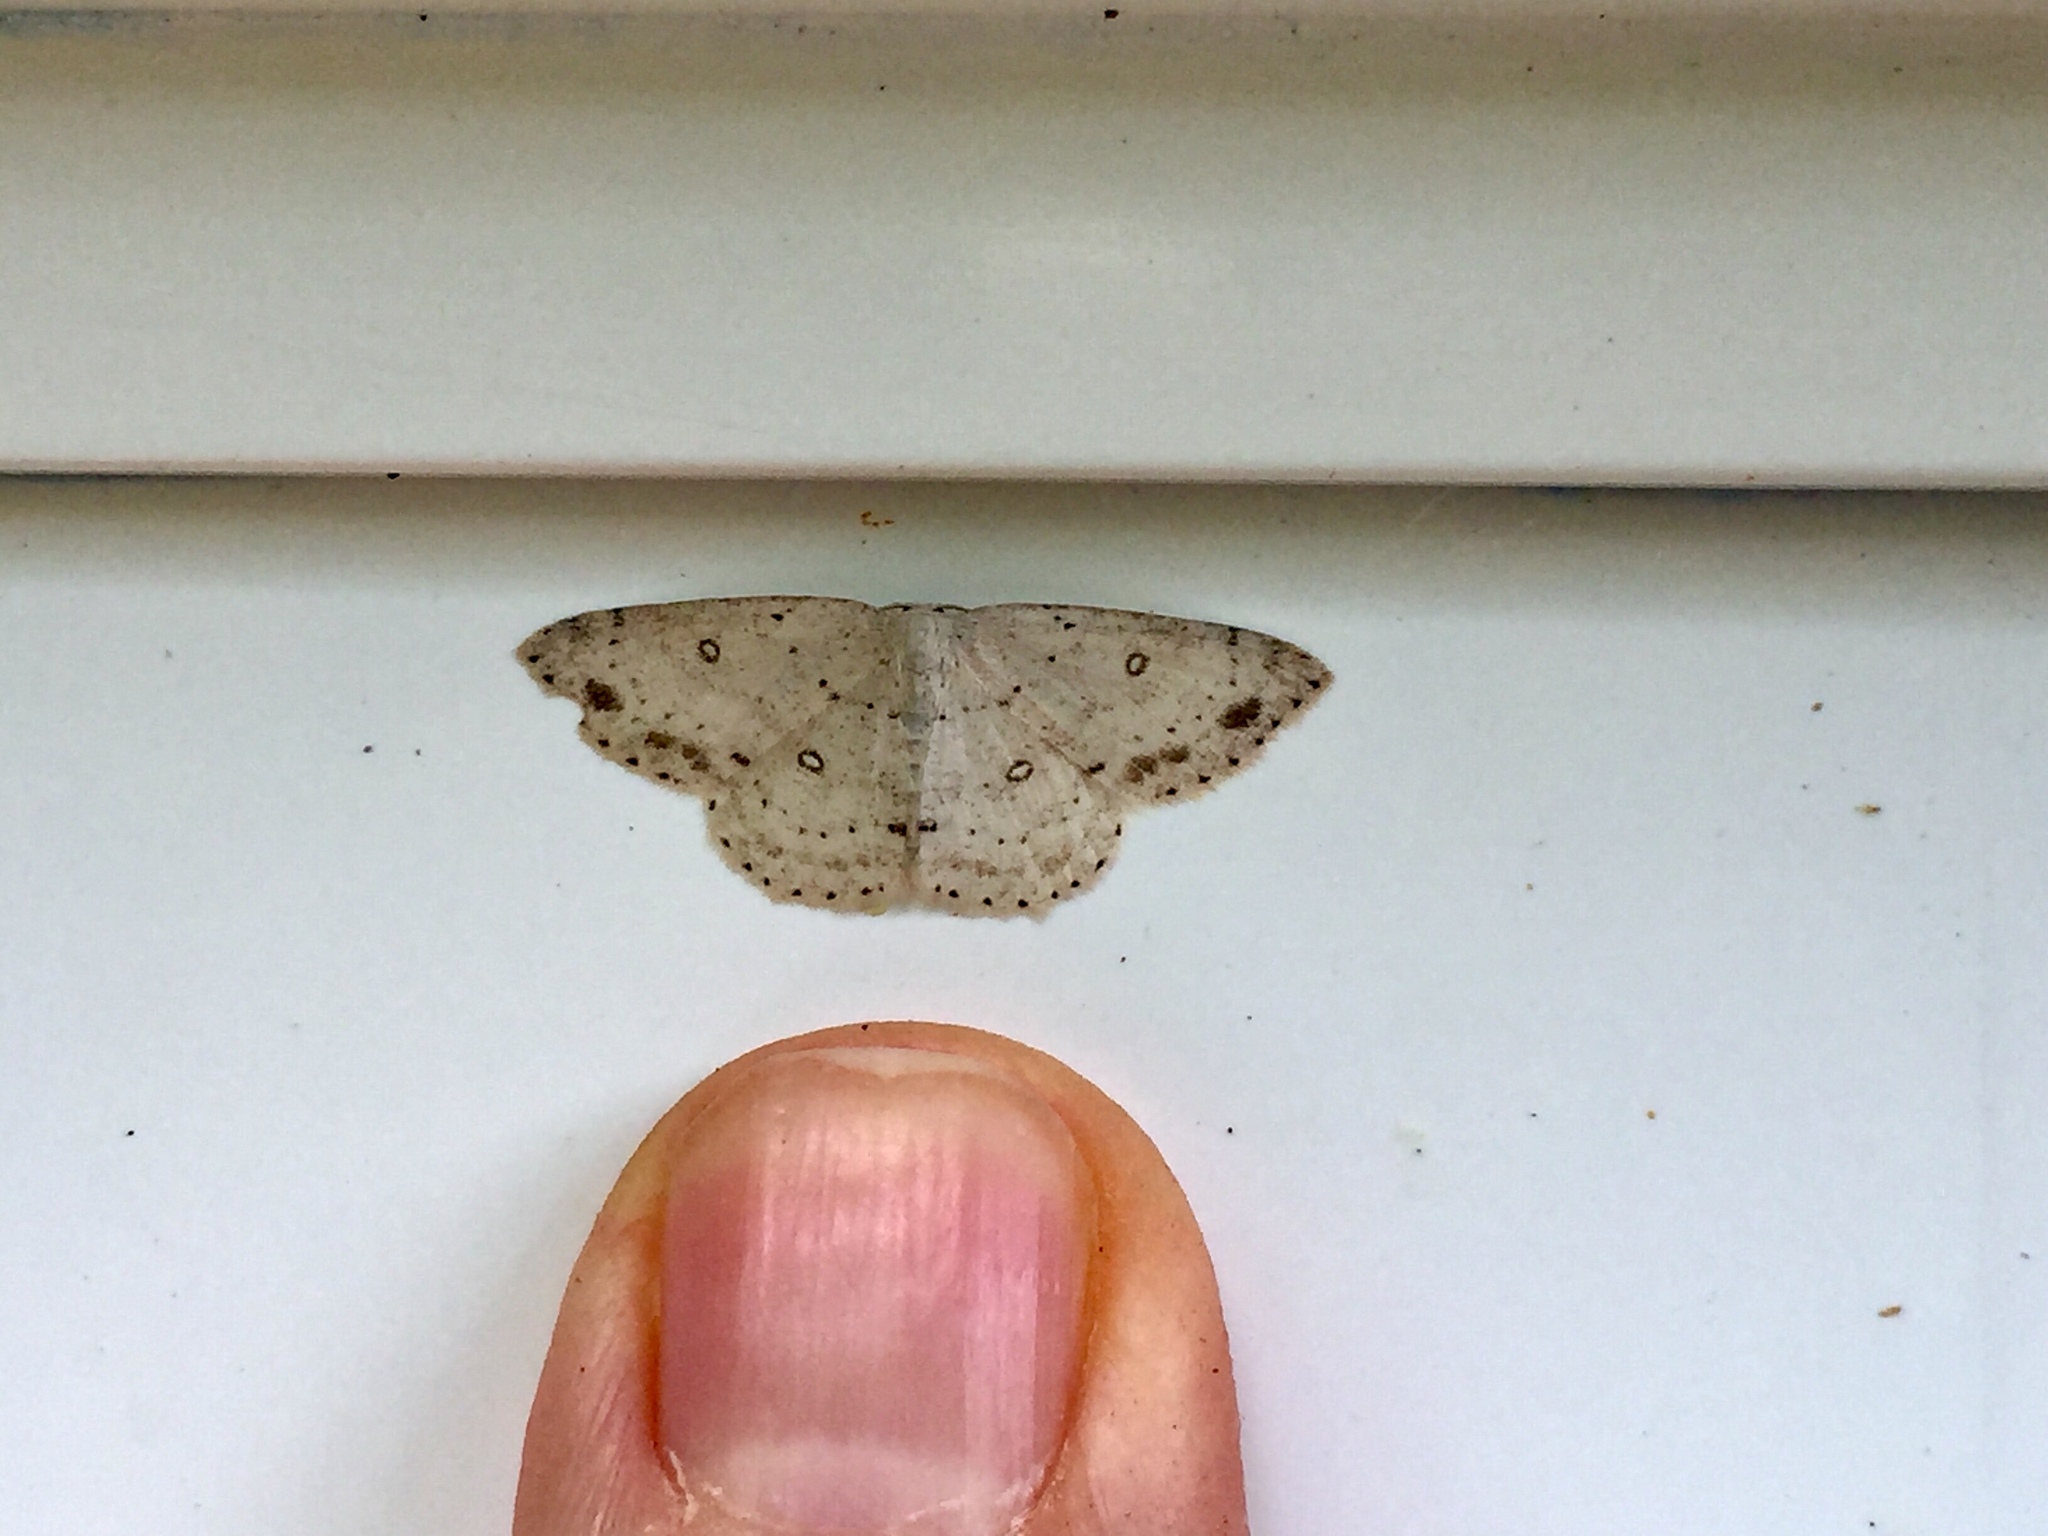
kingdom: Animalia
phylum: Arthropoda
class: Insecta
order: Lepidoptera
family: Geometridae
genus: Cyclophora
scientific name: Cyclophora pendulinaria
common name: Sweet fern geometer
